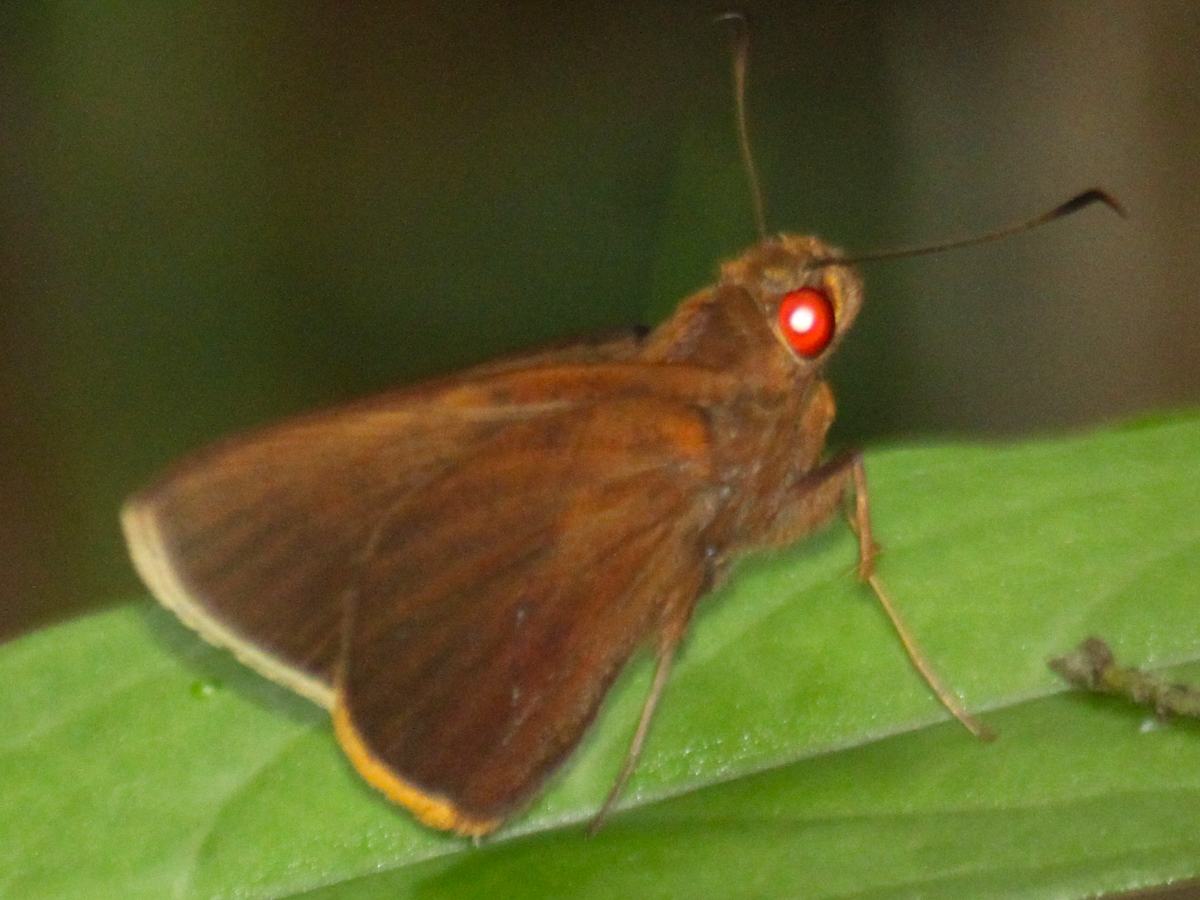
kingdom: Animalia
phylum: Arthropoda
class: Insecta
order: Lepidoptera
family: Hesperiidae
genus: Matapa
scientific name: Matapa druna
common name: Grey-brand redeye
